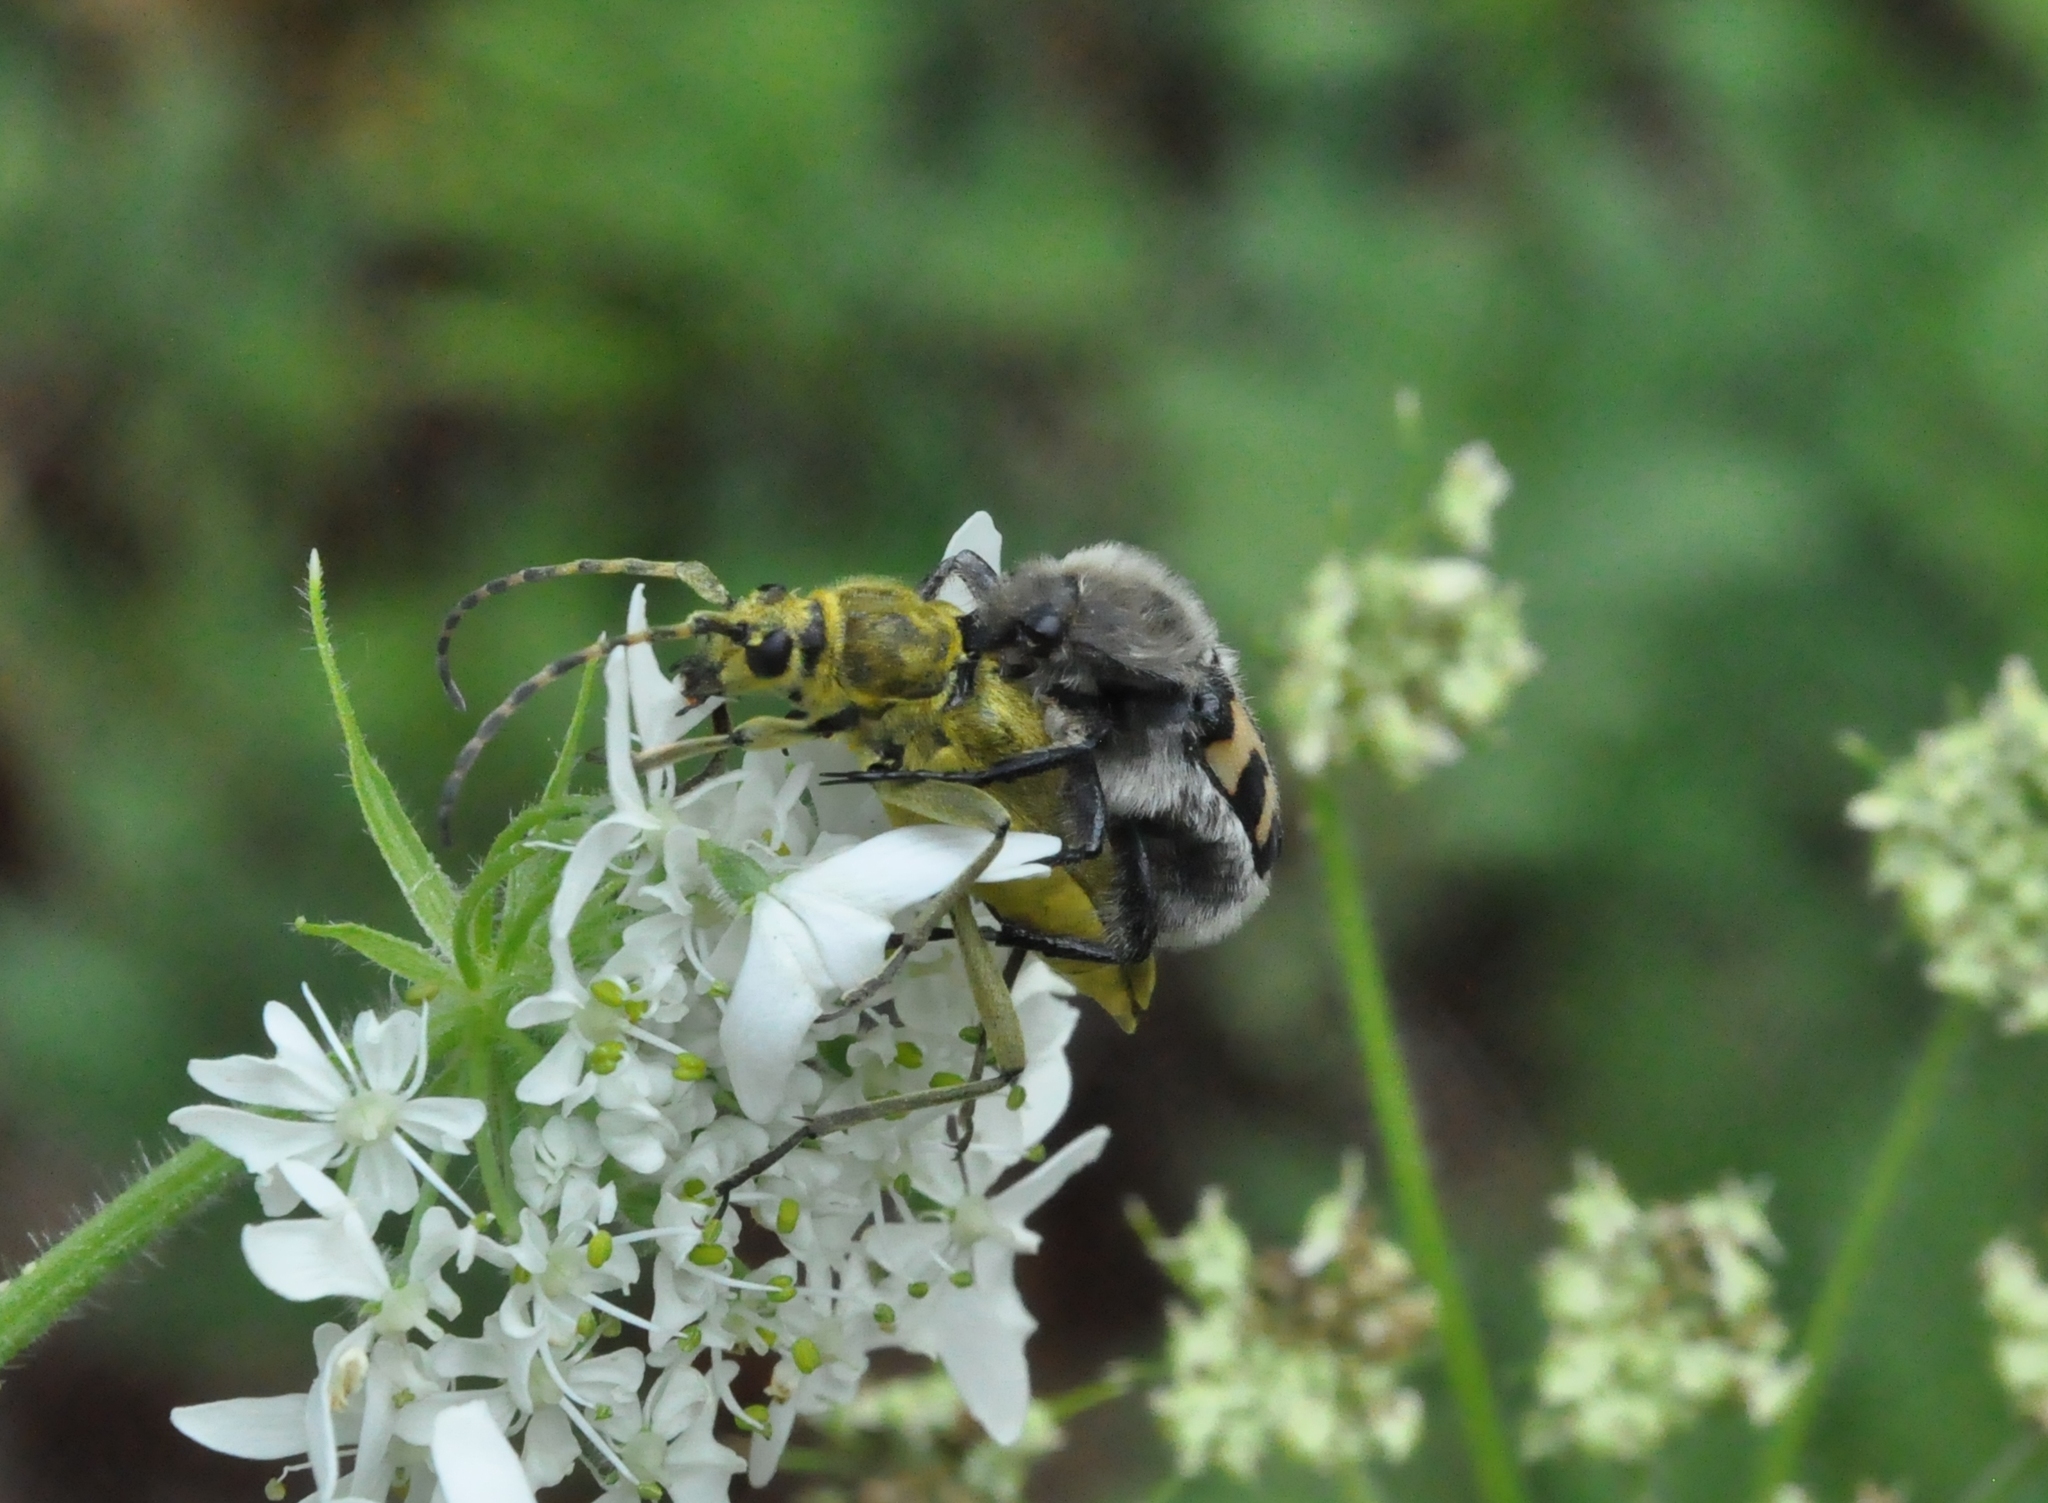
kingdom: Animalia
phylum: Arthropoda
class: Insecta
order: Coleoptera
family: Scarabaeidae
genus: Trichius
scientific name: Trichius fasciatus
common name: Bee beetle
